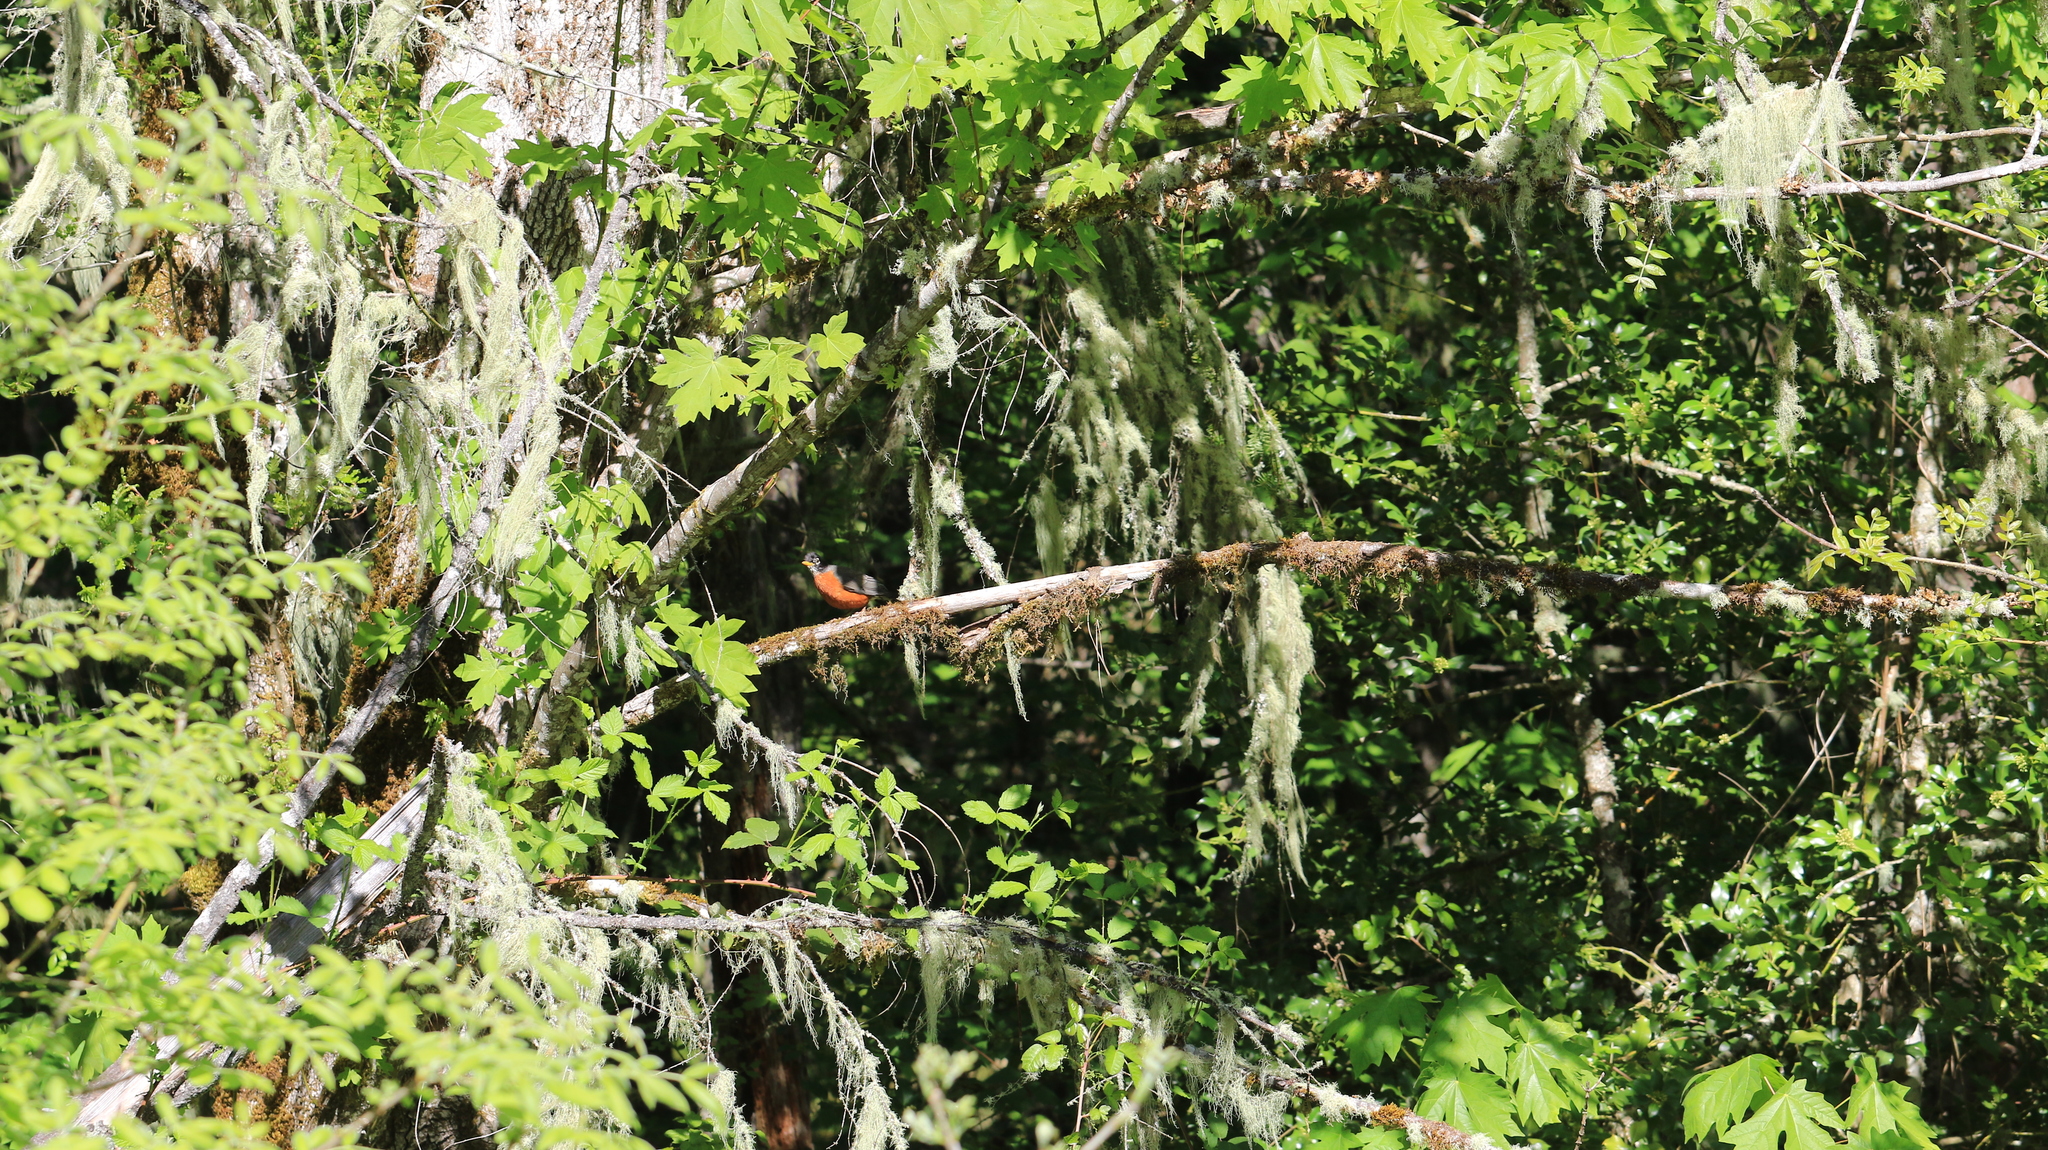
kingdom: Animalia
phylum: Chordata
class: Aves
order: Passeriformes
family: Turdidae
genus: Turdus
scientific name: Turdus migratorius
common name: American robin
